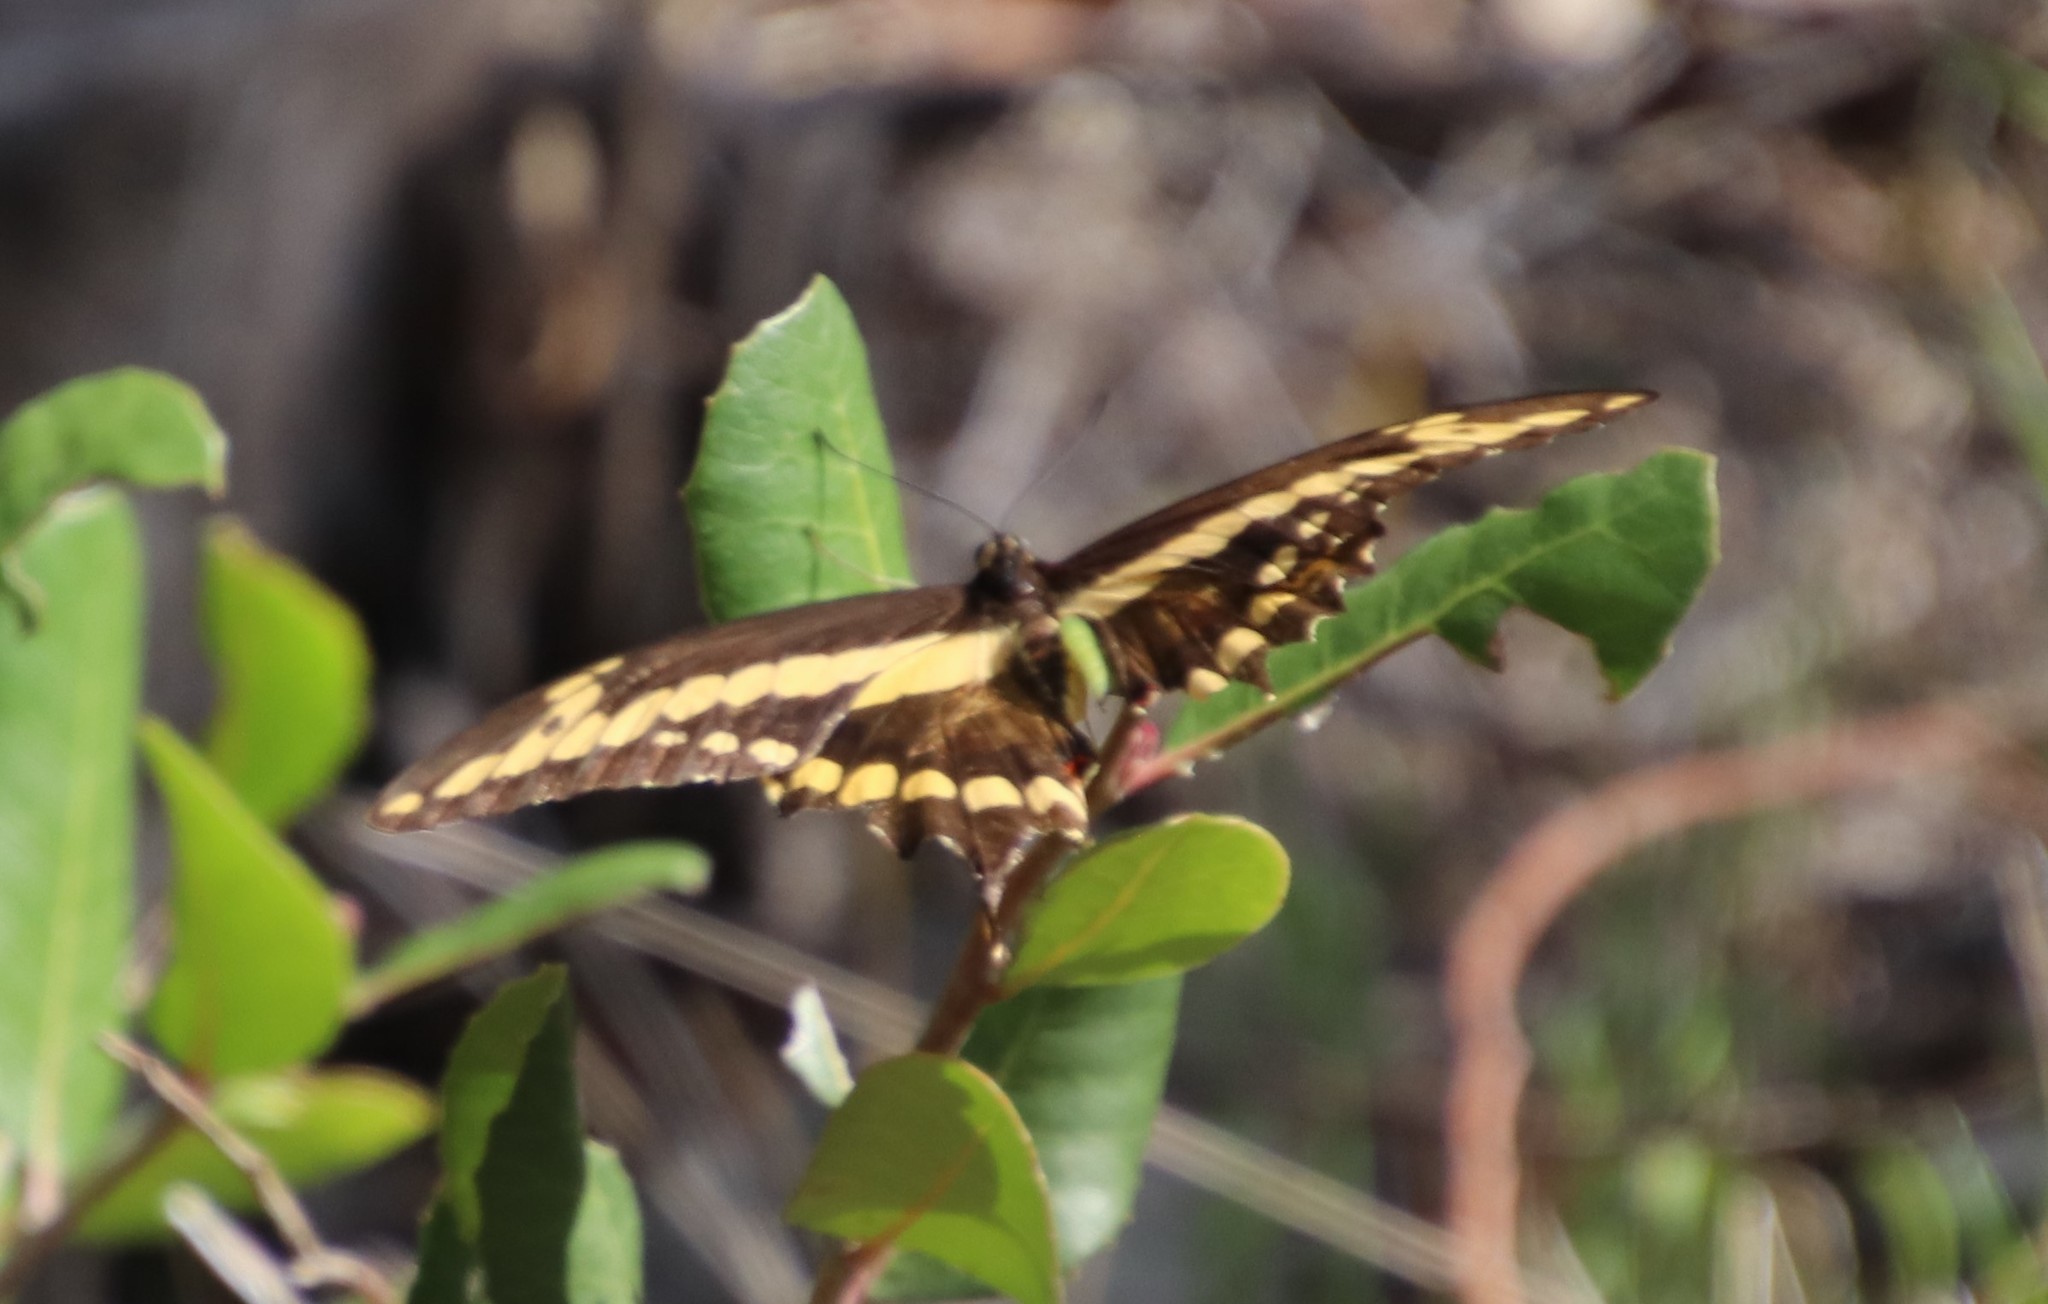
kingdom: Animalia
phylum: Arthropoda
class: Insecta
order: Lepidoptera
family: Papilionidae
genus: Papilio
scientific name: Papilio rumiko
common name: Western giant swallowtail
